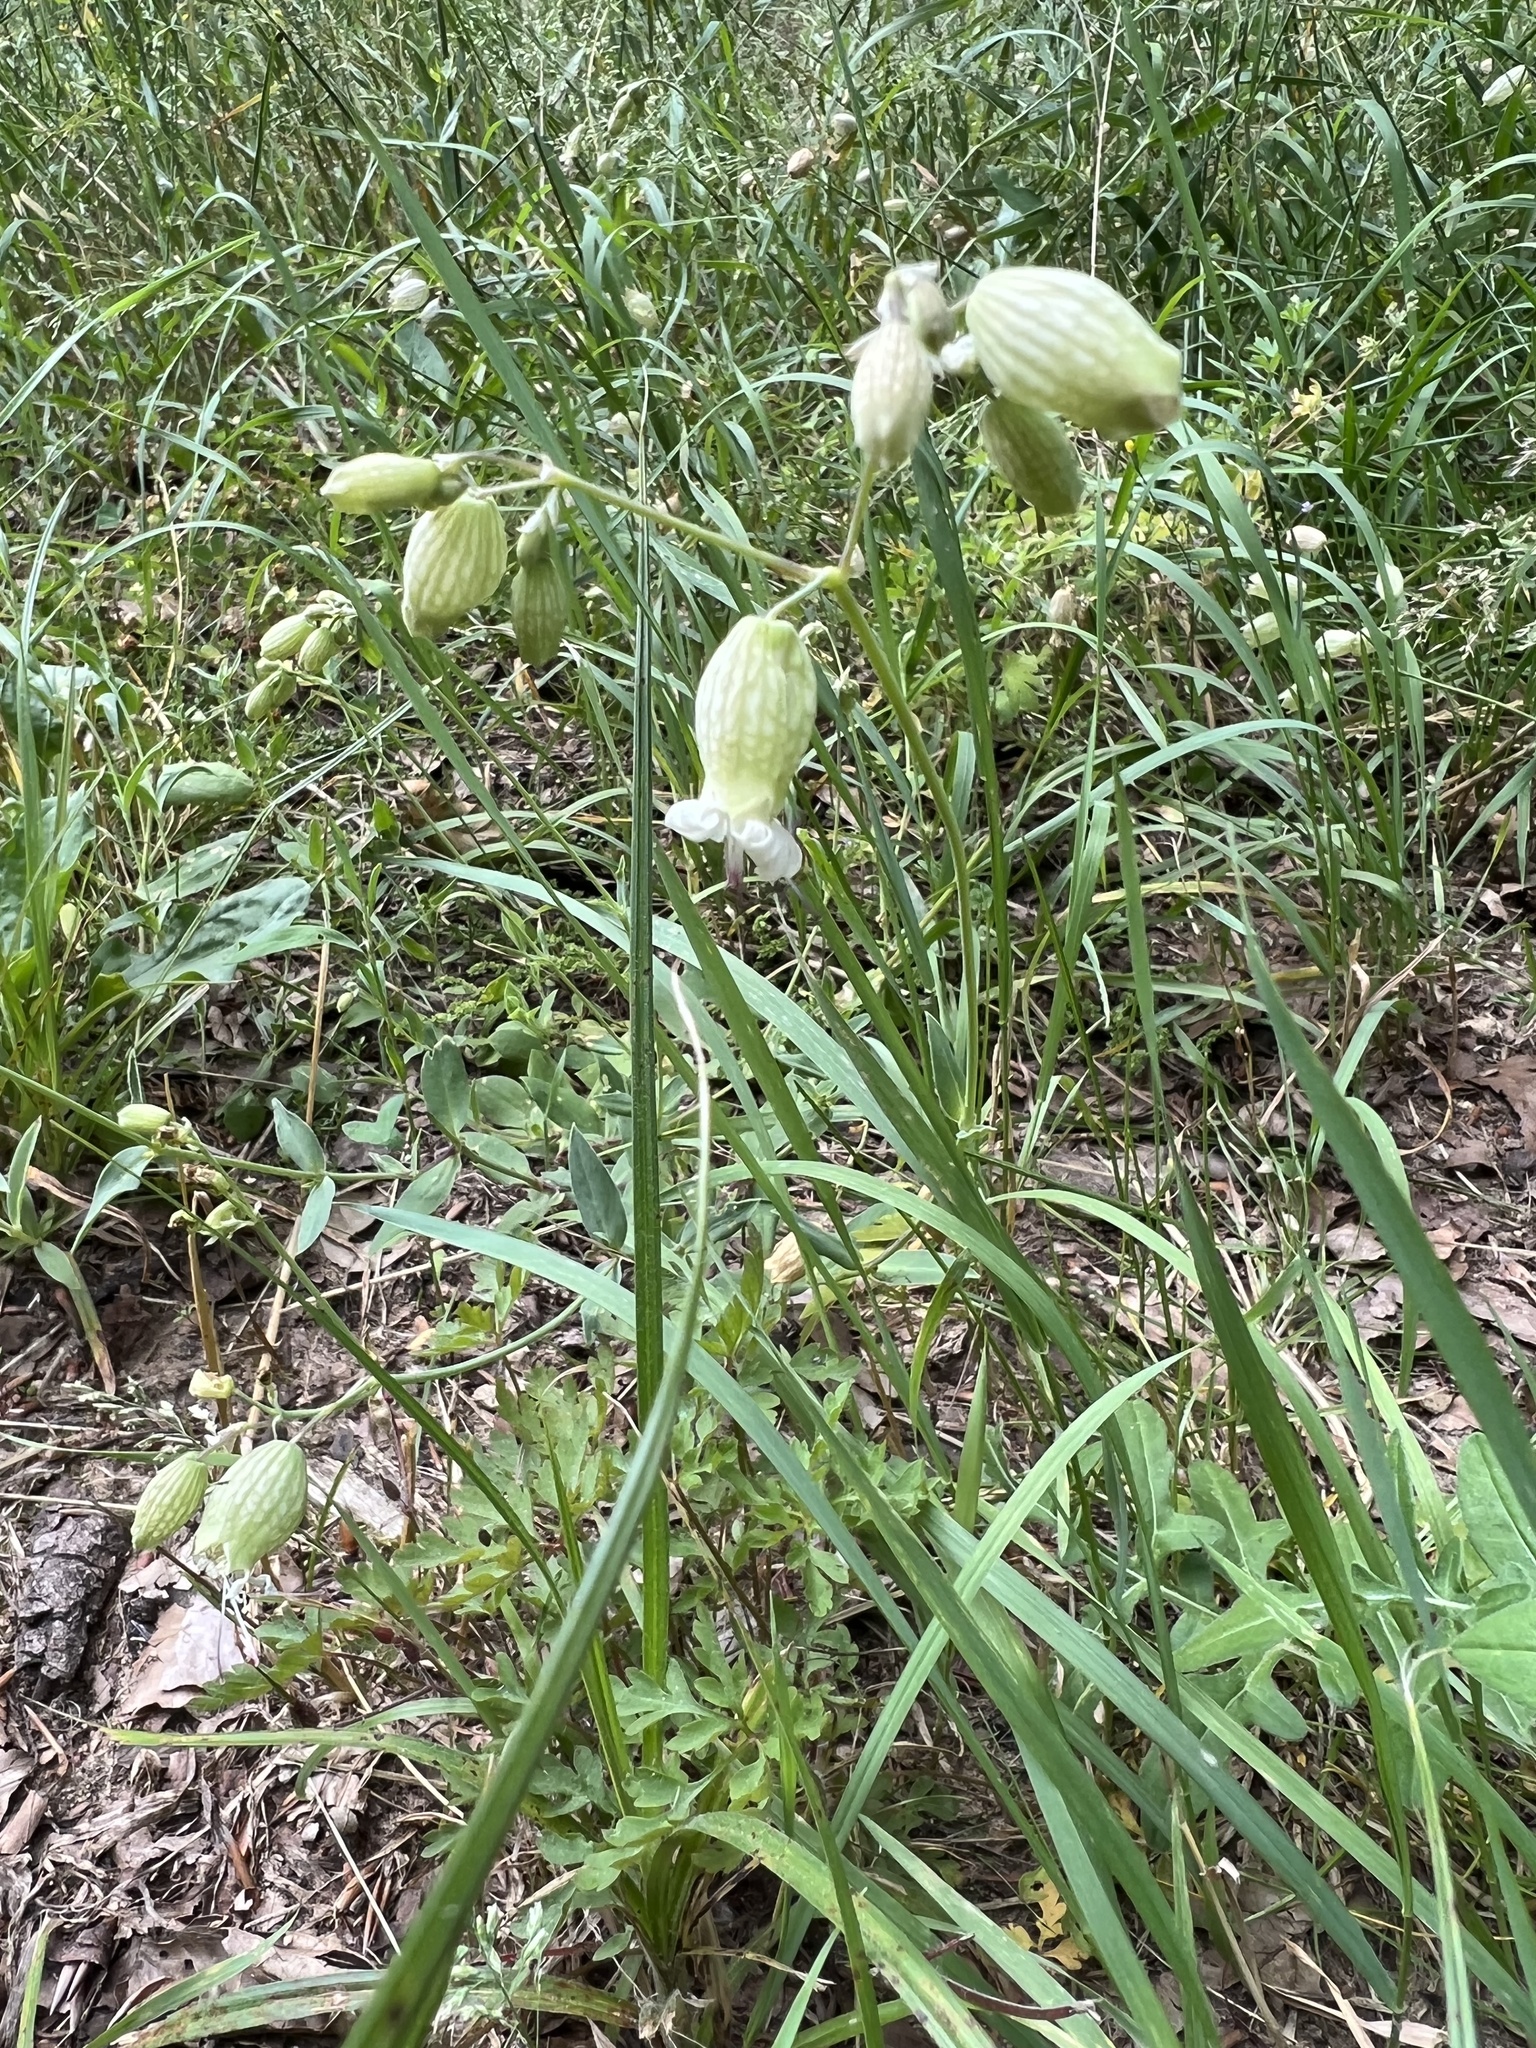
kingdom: Plantae
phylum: Tracheophyta
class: Magnoliopsida
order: Caryophyllales
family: Caryophyllaceae
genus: Silene
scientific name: Silene vulgaris
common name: Bladder campion
